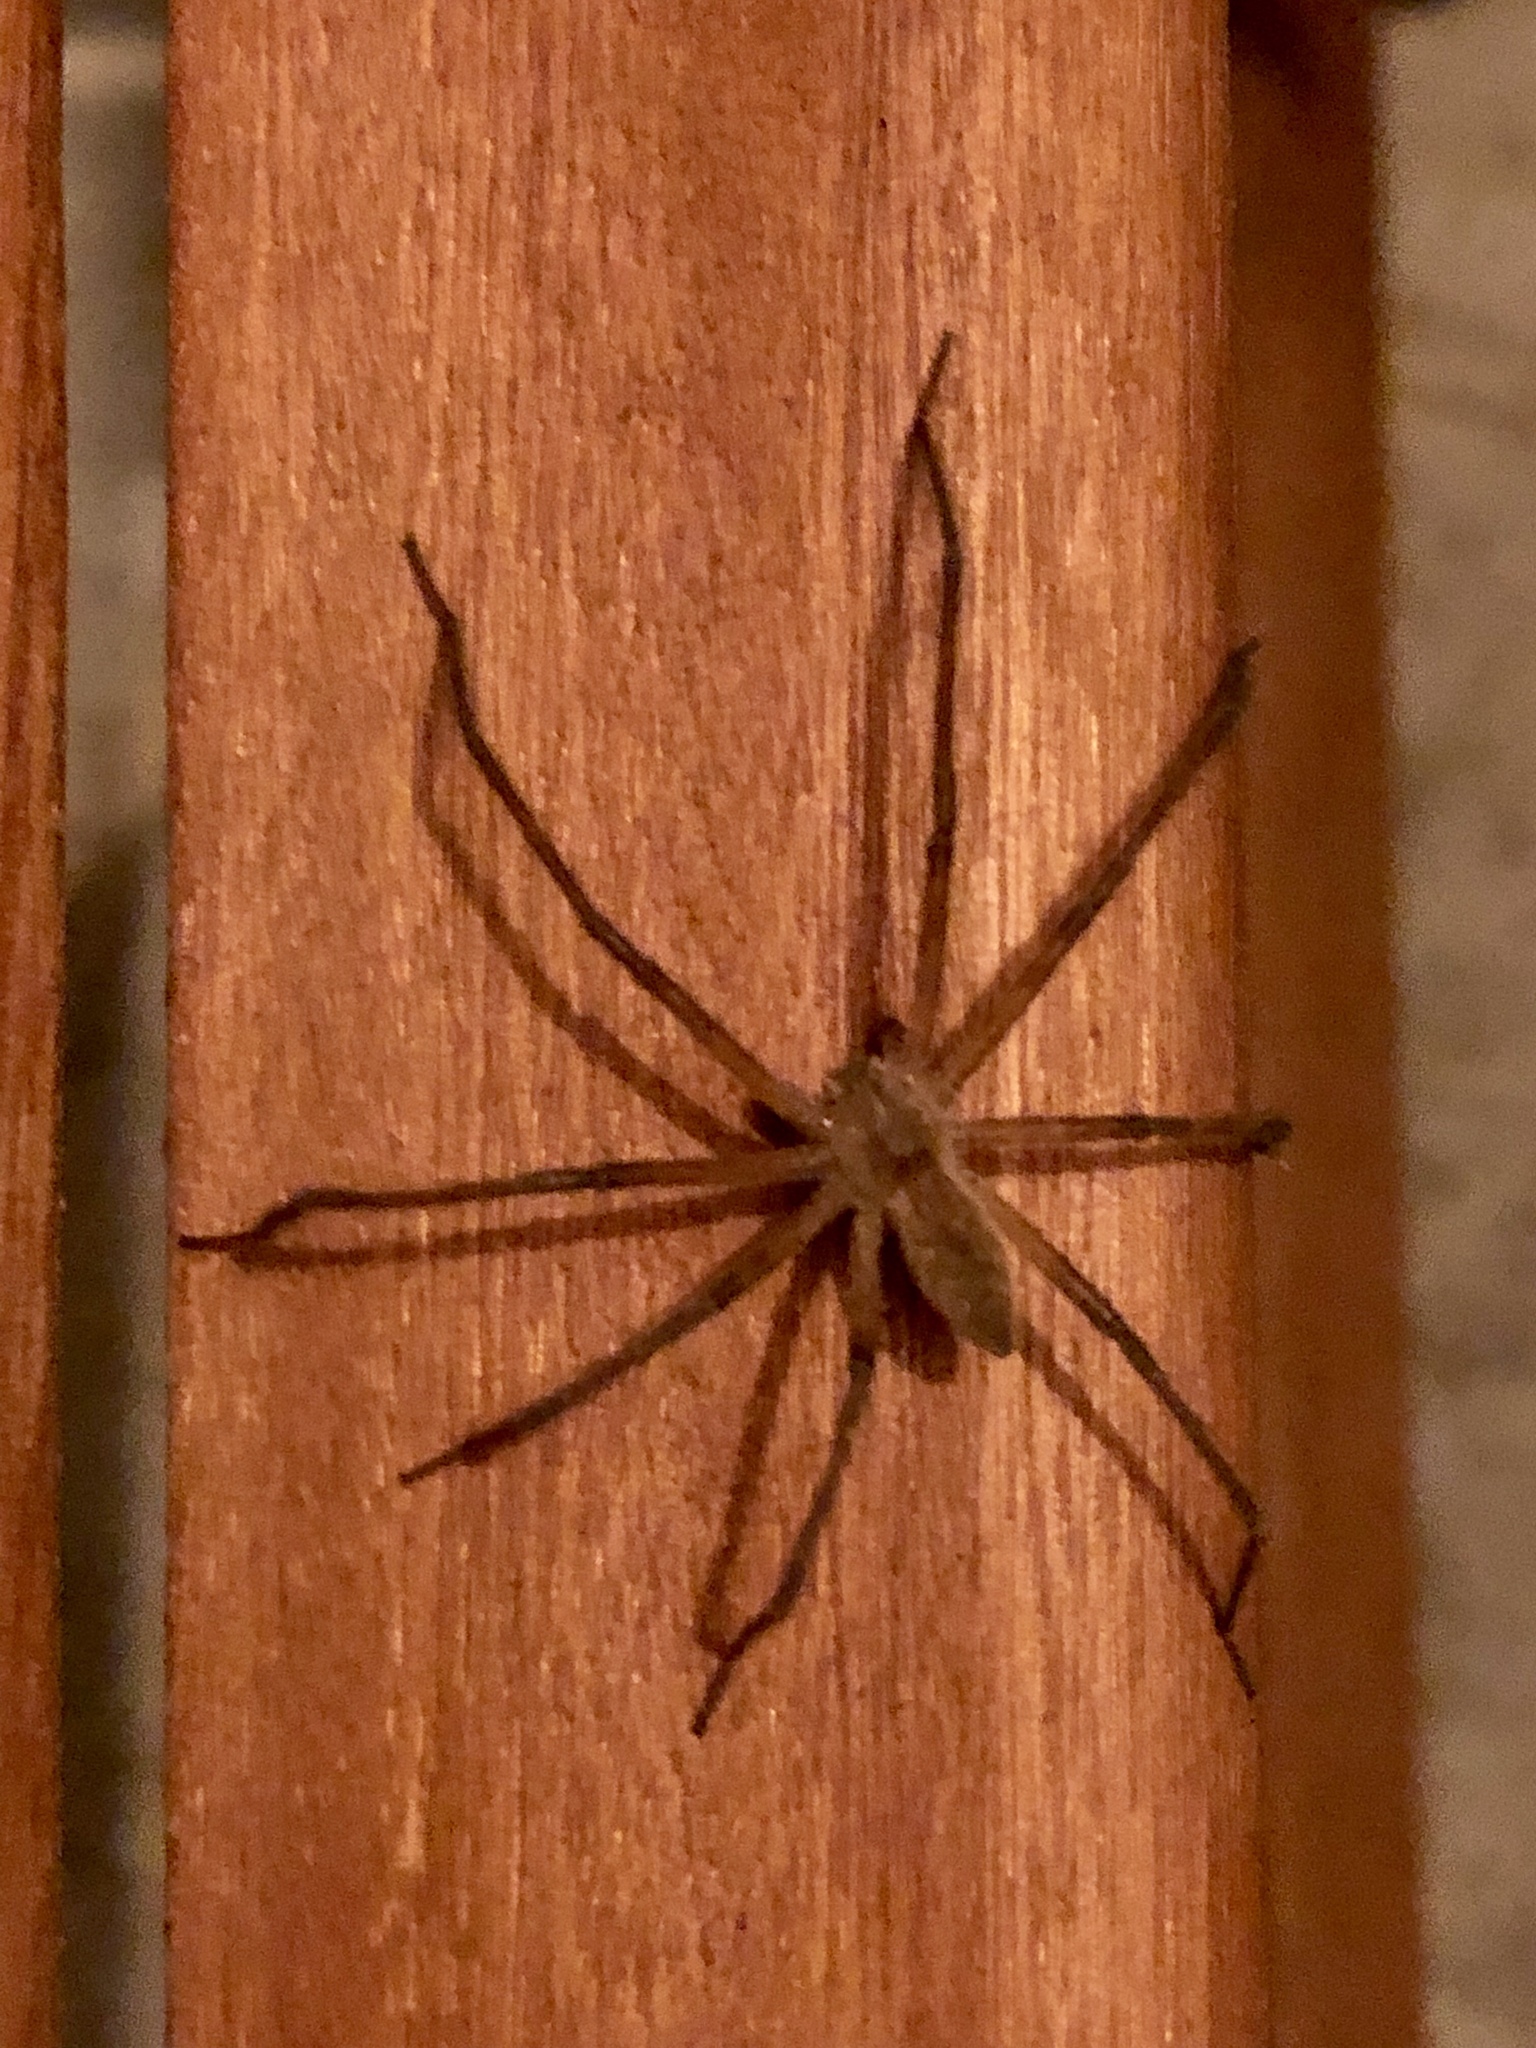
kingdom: Animalia
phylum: Arthropoda
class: Arachnida
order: Araneae
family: Pisauridae
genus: Pisaurina
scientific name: Pisaurina mira
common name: American nursery web spider
